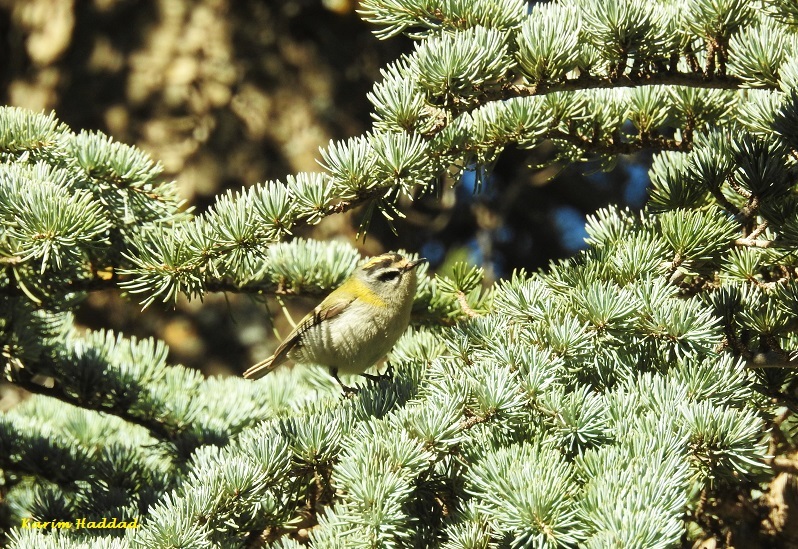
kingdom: Animalia
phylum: Chordata
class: Aves
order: Passeriformes
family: Regulidae
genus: Regulus
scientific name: Regulus ignicapilla
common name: Firecrest
